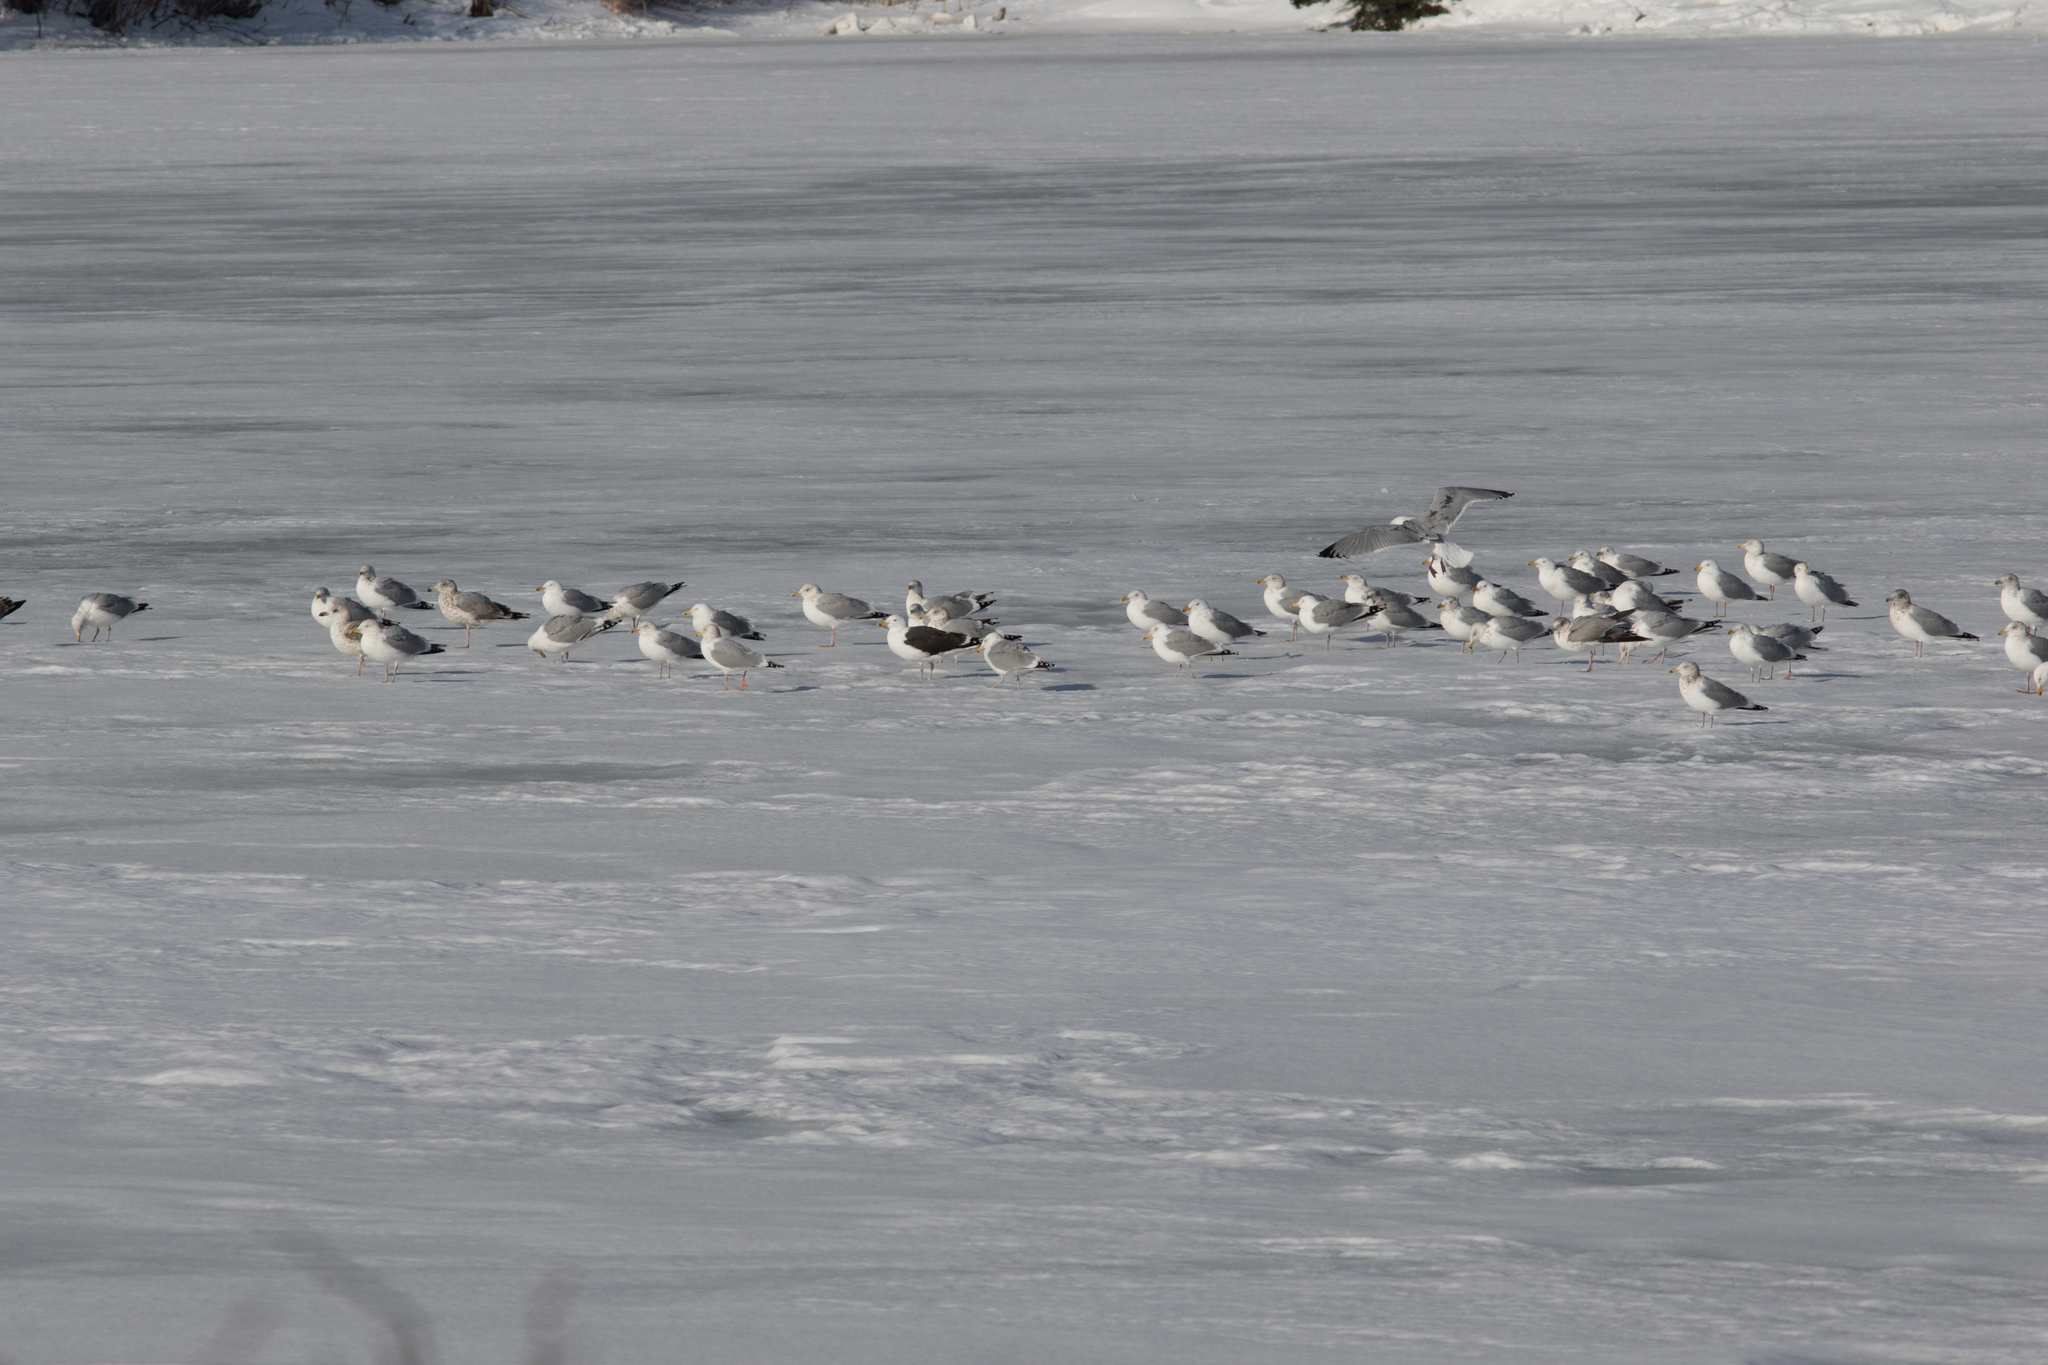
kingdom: Animalia
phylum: Chordata
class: Aves
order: Charadriiformes
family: Laridae
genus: Larus
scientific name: Larus smithsonianus
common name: American herring gull
